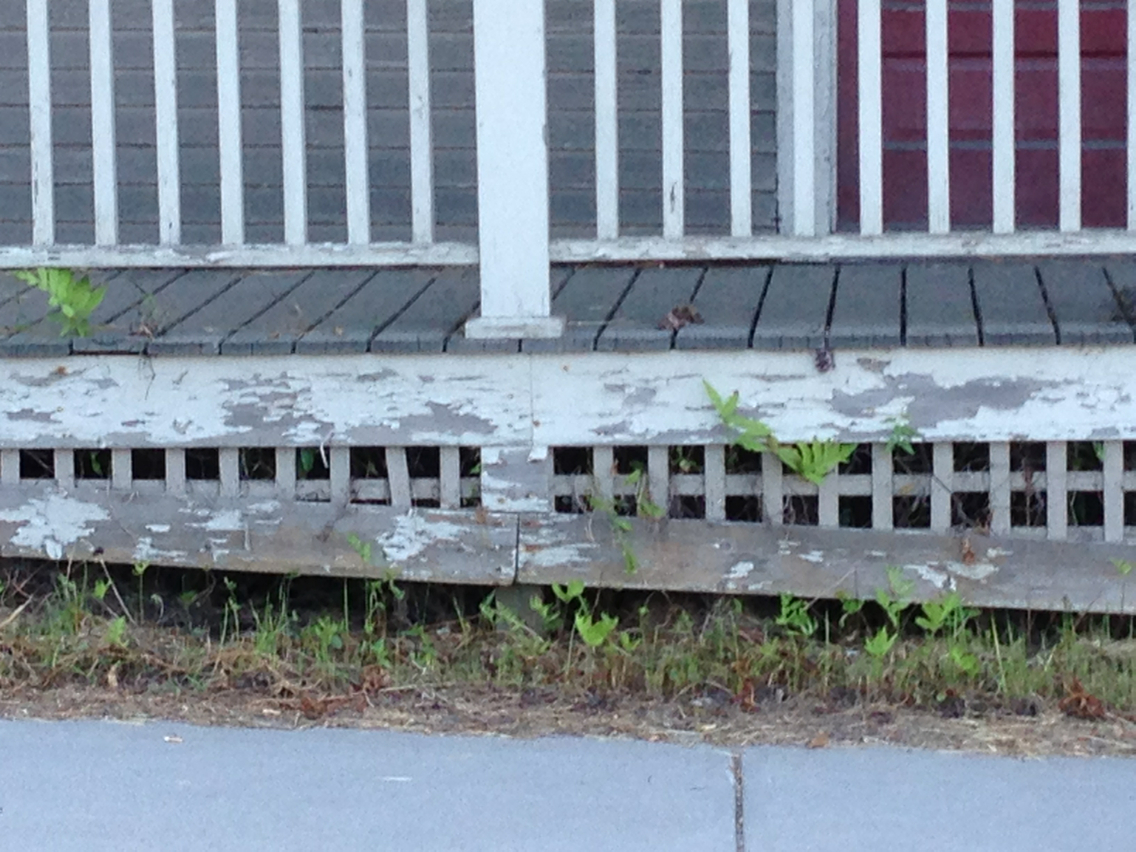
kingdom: Plantae
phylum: Tracheophyta
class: Polypodiopsida
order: Polypodiales
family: Onocleaceae
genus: Onoclea
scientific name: Onoclea sensibilis
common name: Sensitive fern
